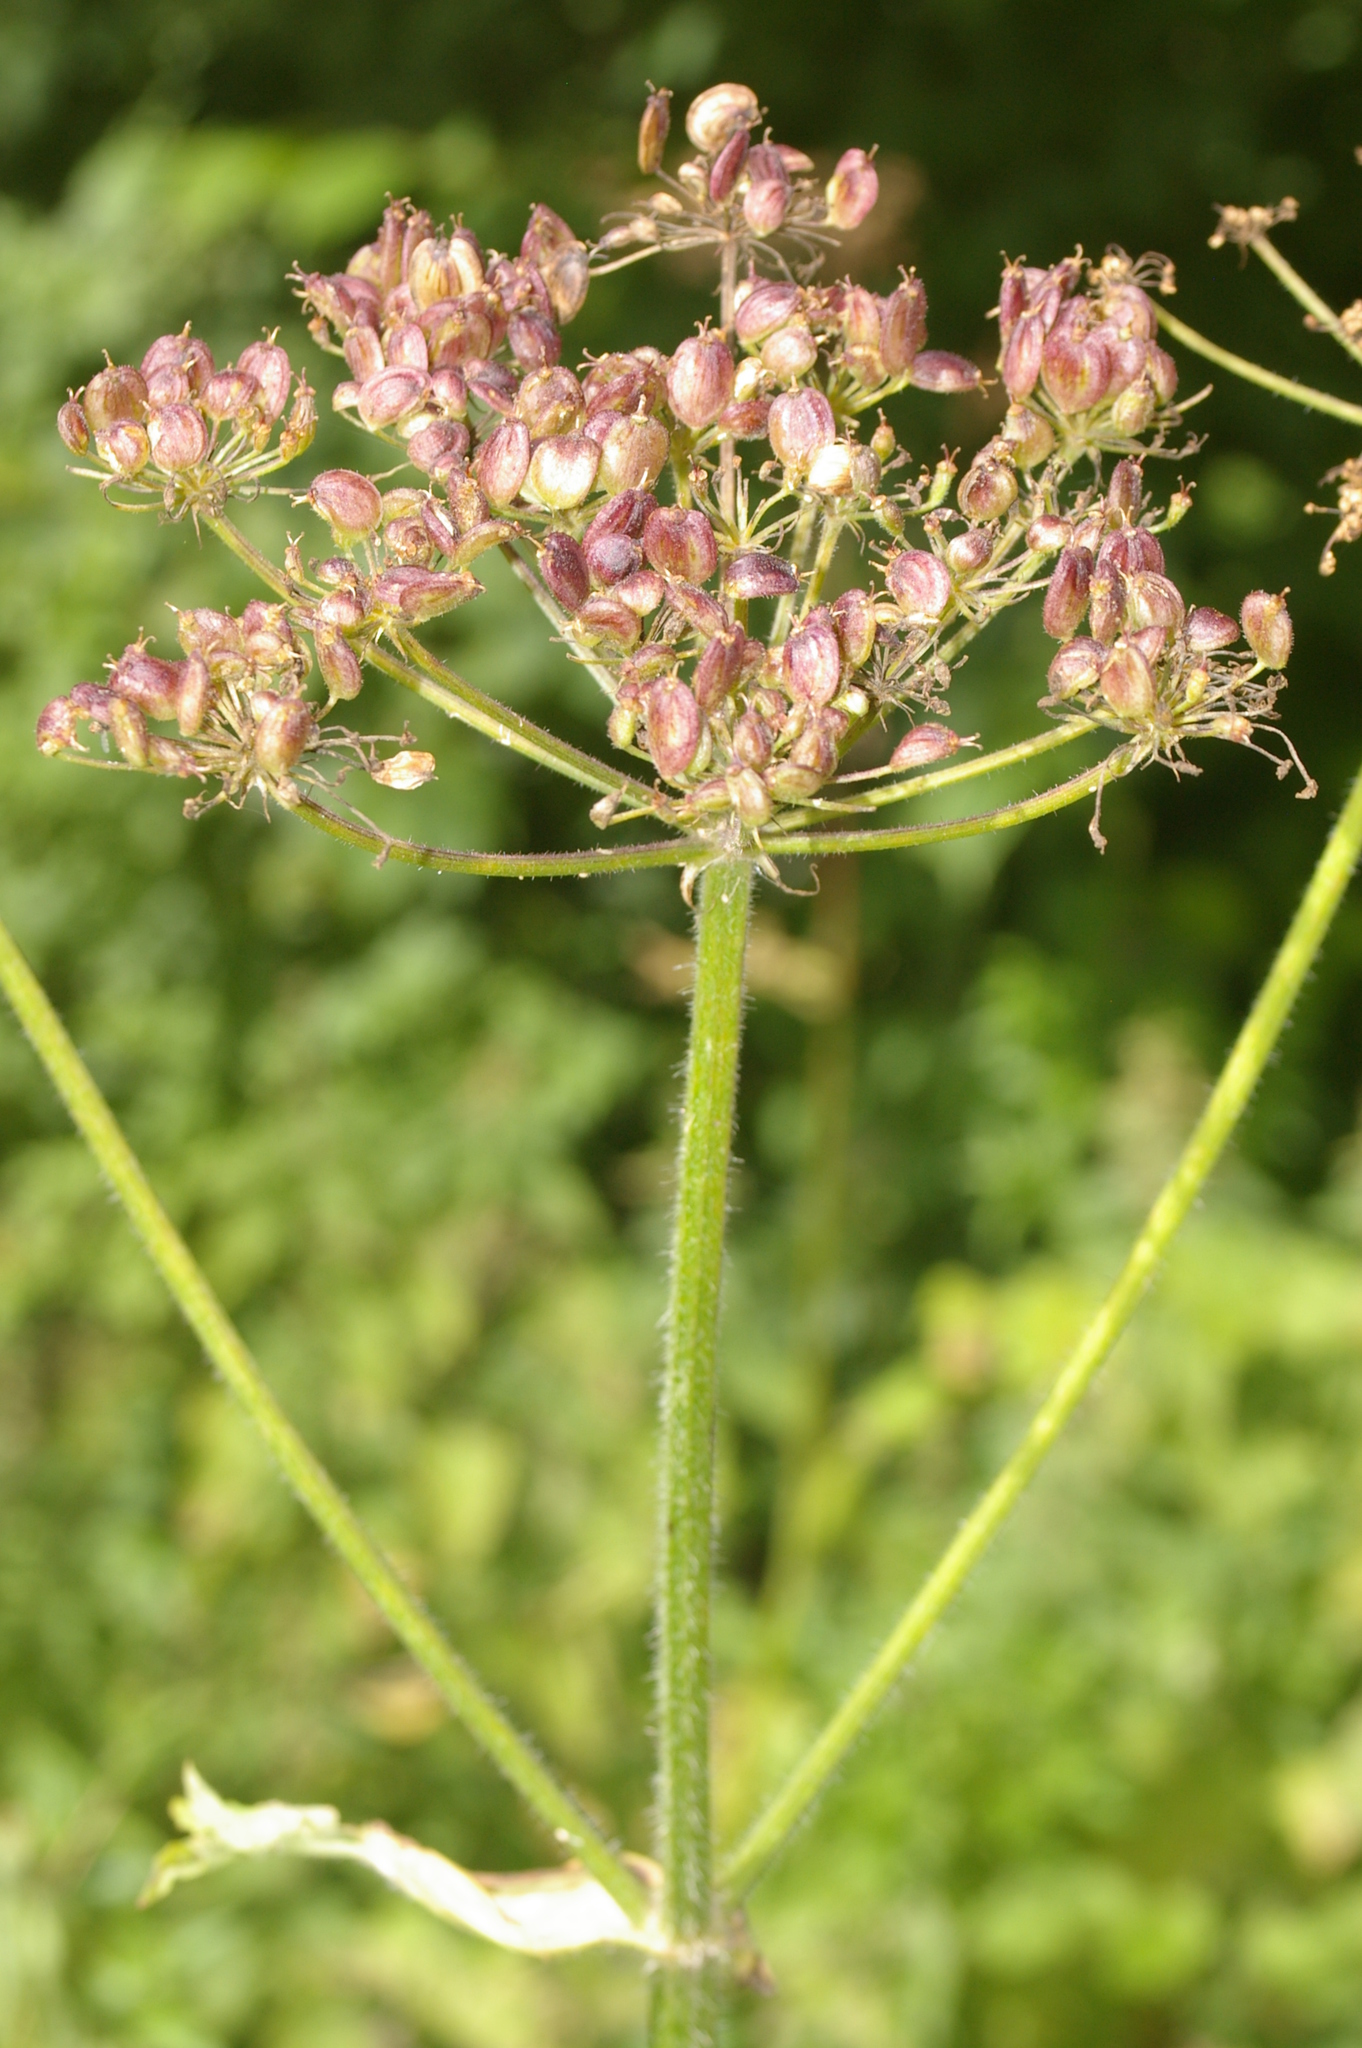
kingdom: Plantae
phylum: Tracheophyta
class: Magnoliopsida
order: Apiales
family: Apiaceae
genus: Heracleum
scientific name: Heracleum sphondylium
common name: Hogweed
